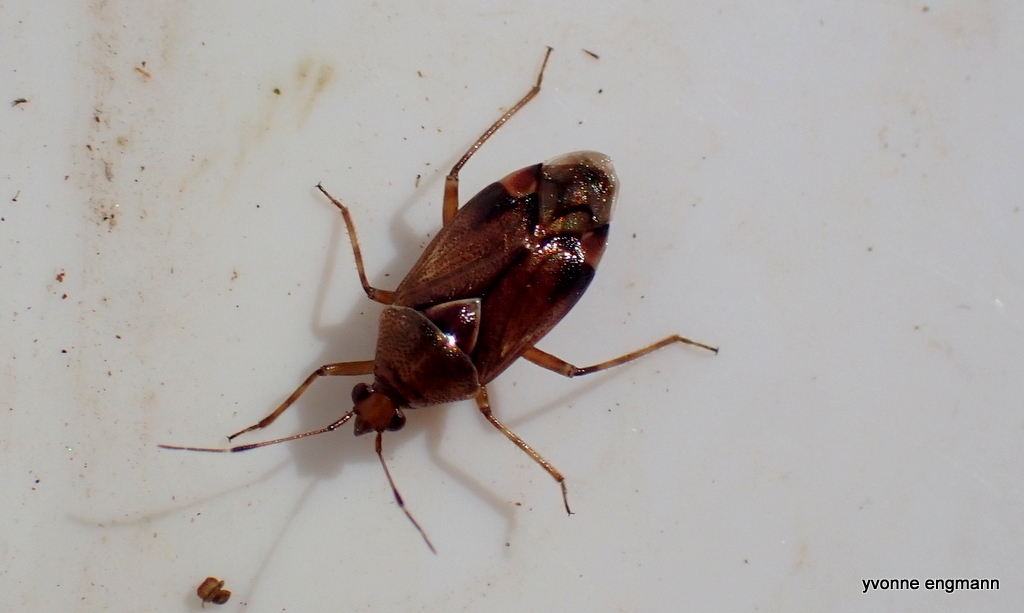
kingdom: Animalia
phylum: Arthropoda
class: Insecta
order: Hemiptera
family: Miridae
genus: Deraeocoris
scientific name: Deraeocoris flavilinea
